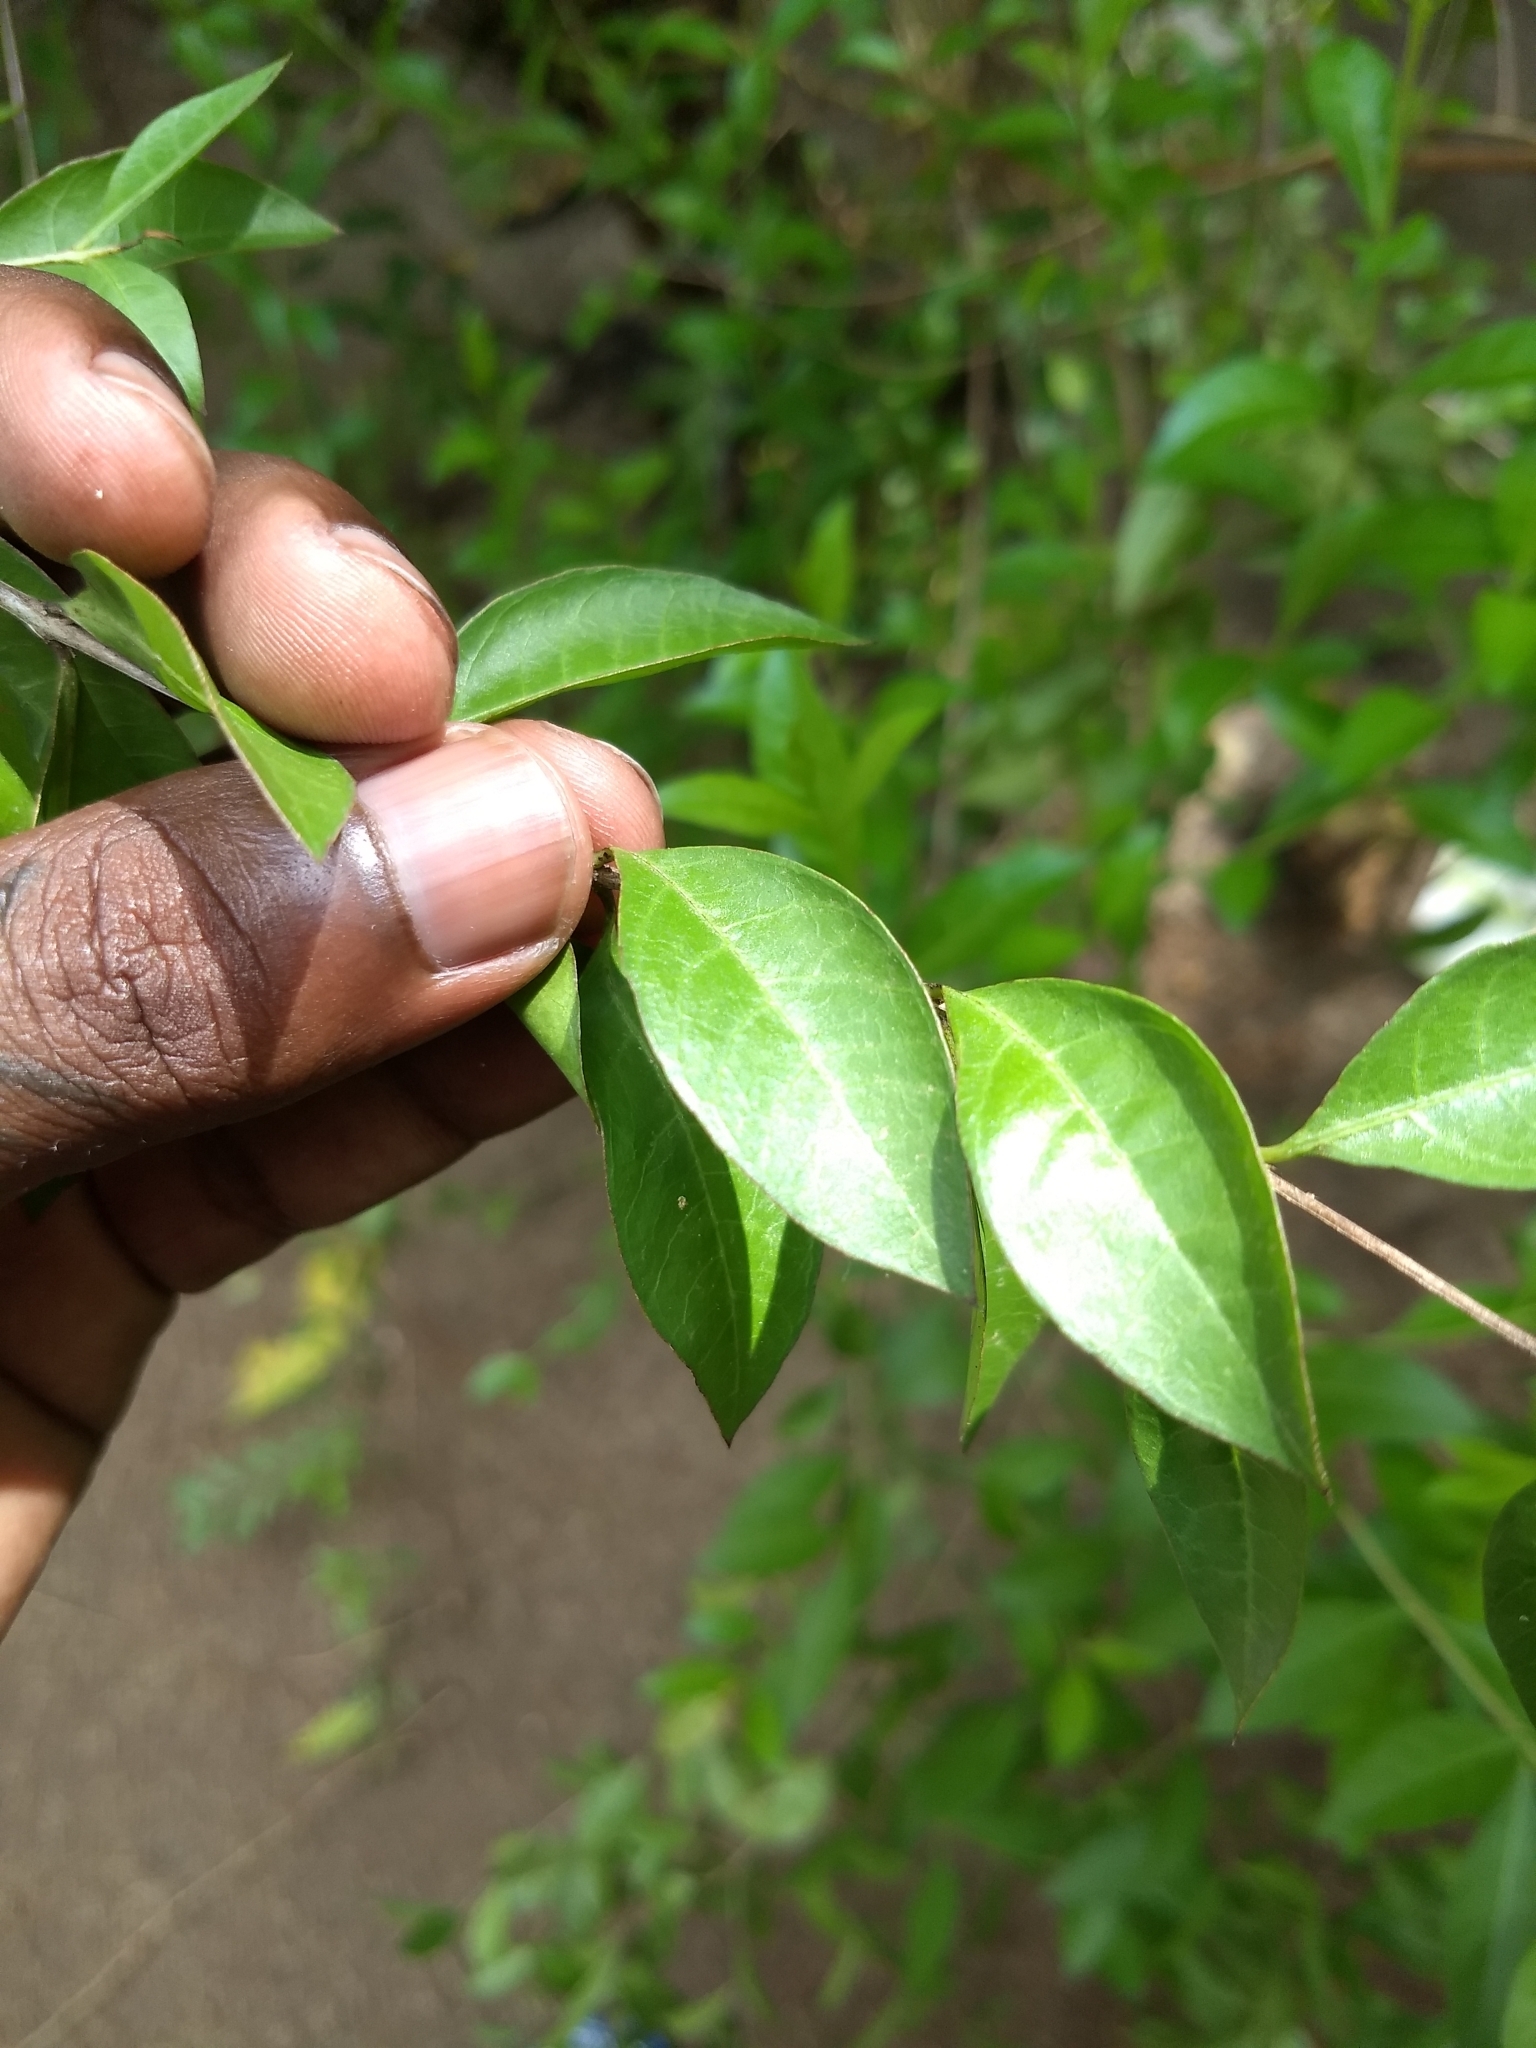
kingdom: Plantae
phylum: Tracheophyta
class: Magnoliopsida
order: Myrtales
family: Lythraceae
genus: Lawsonia
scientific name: Lawsonia inermis
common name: Henna
